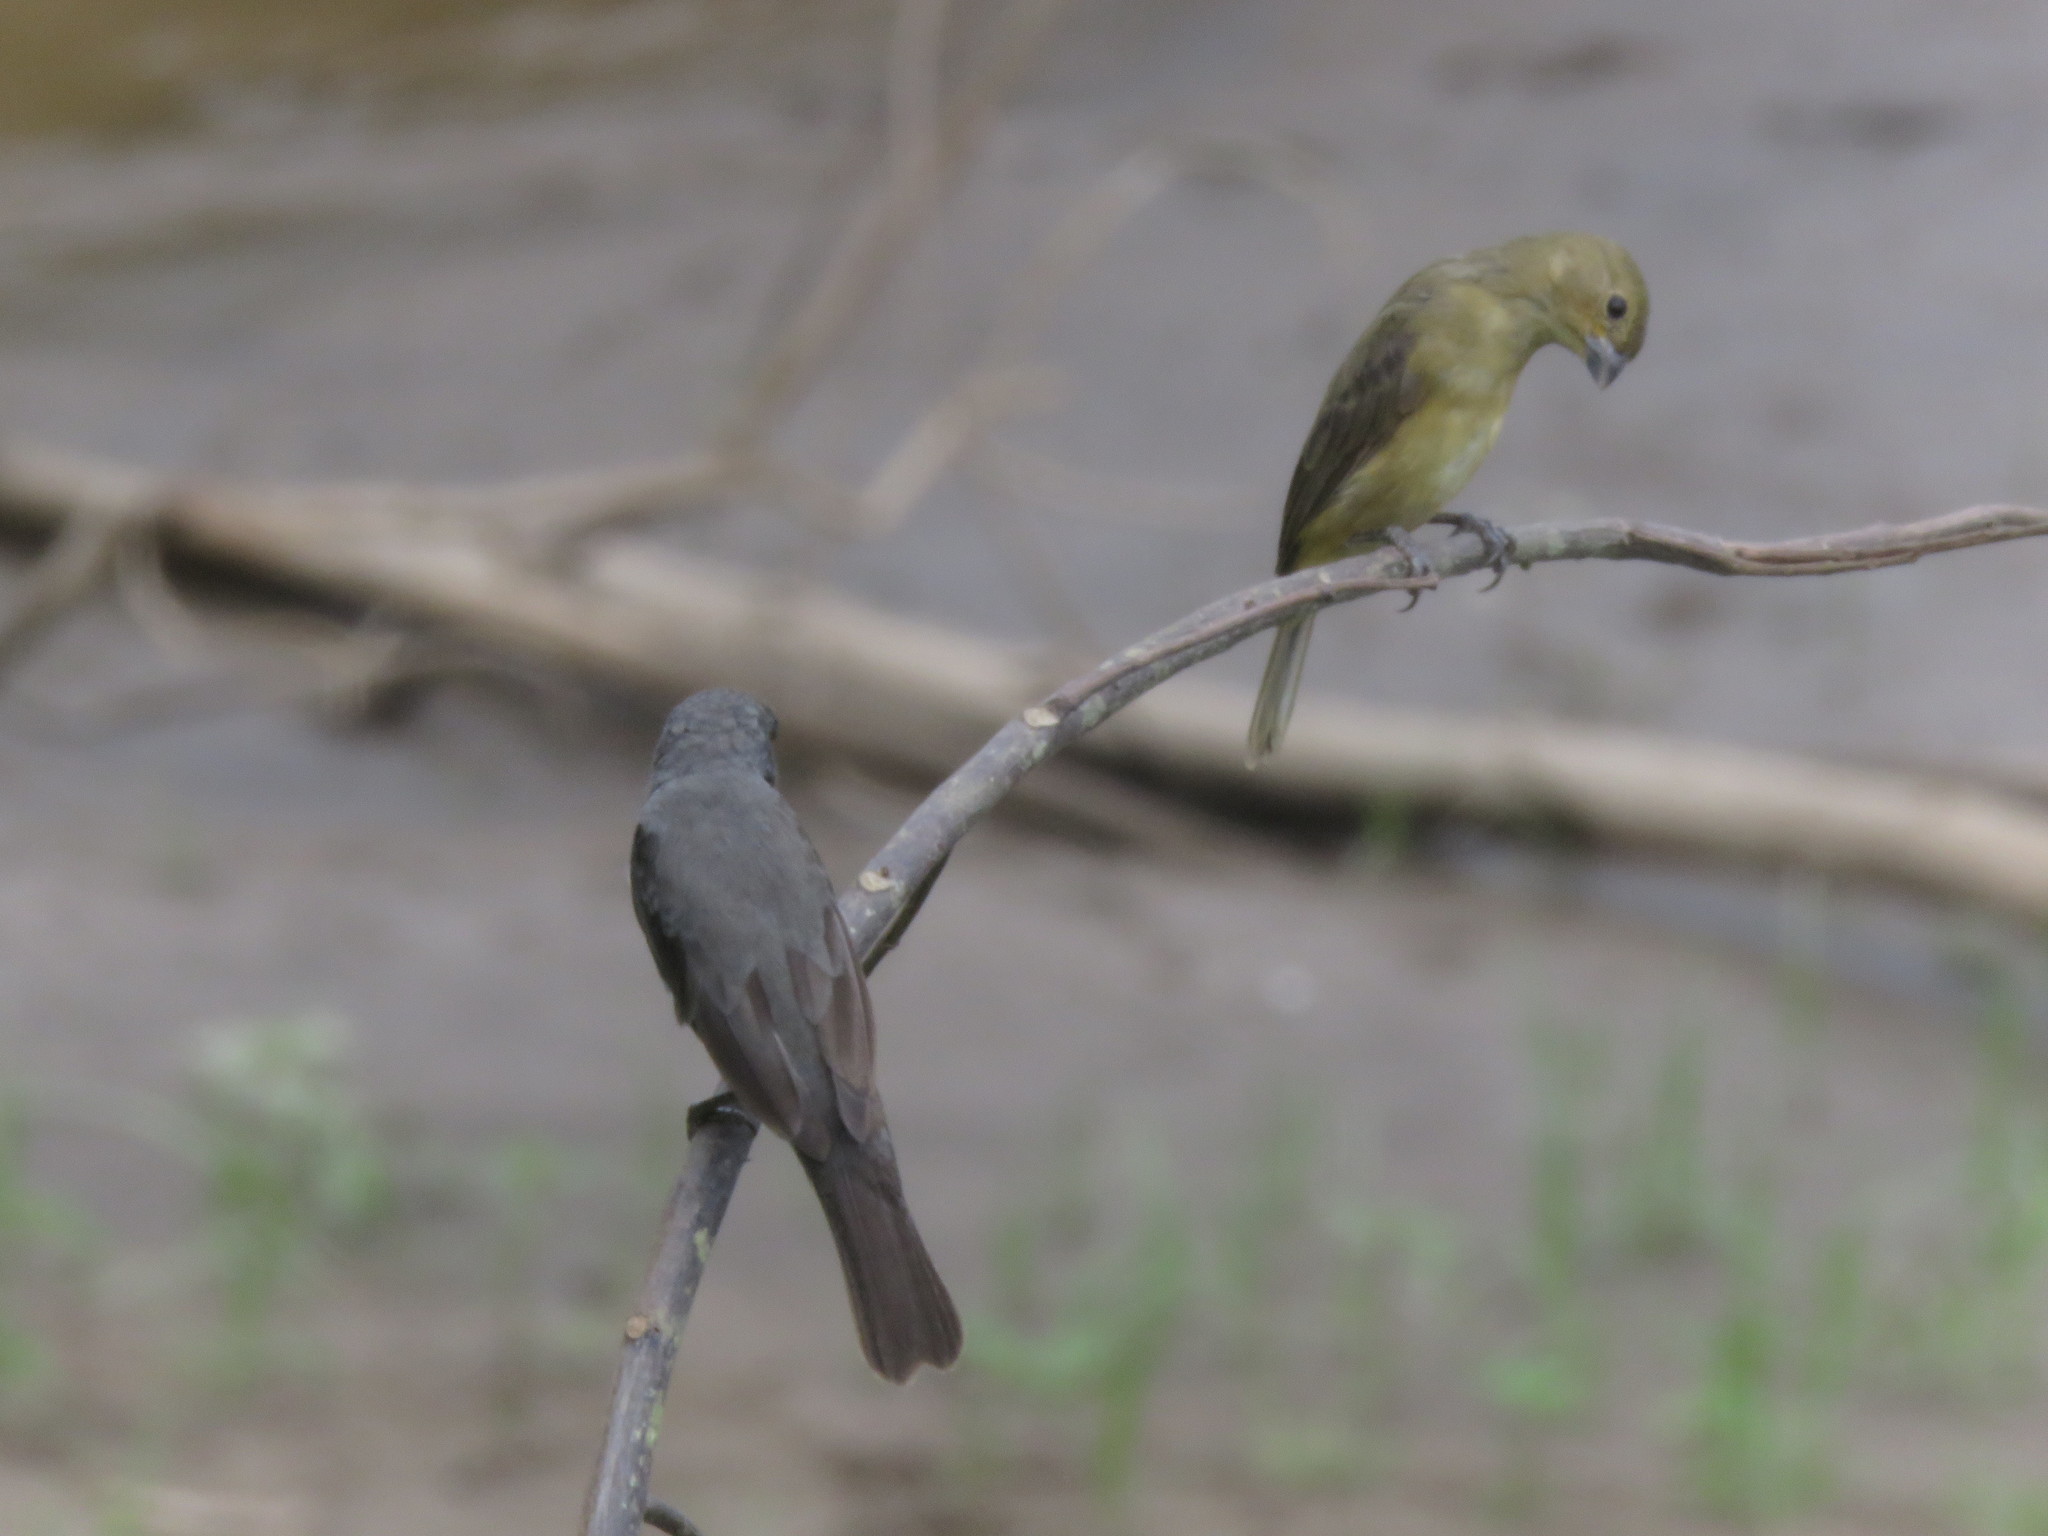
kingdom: Animalia
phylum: Chordata
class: Aves
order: Passeriformes
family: Thraupidae
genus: Sporophila
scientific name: Sporophila caerulescens
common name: Double-collared seedeater
